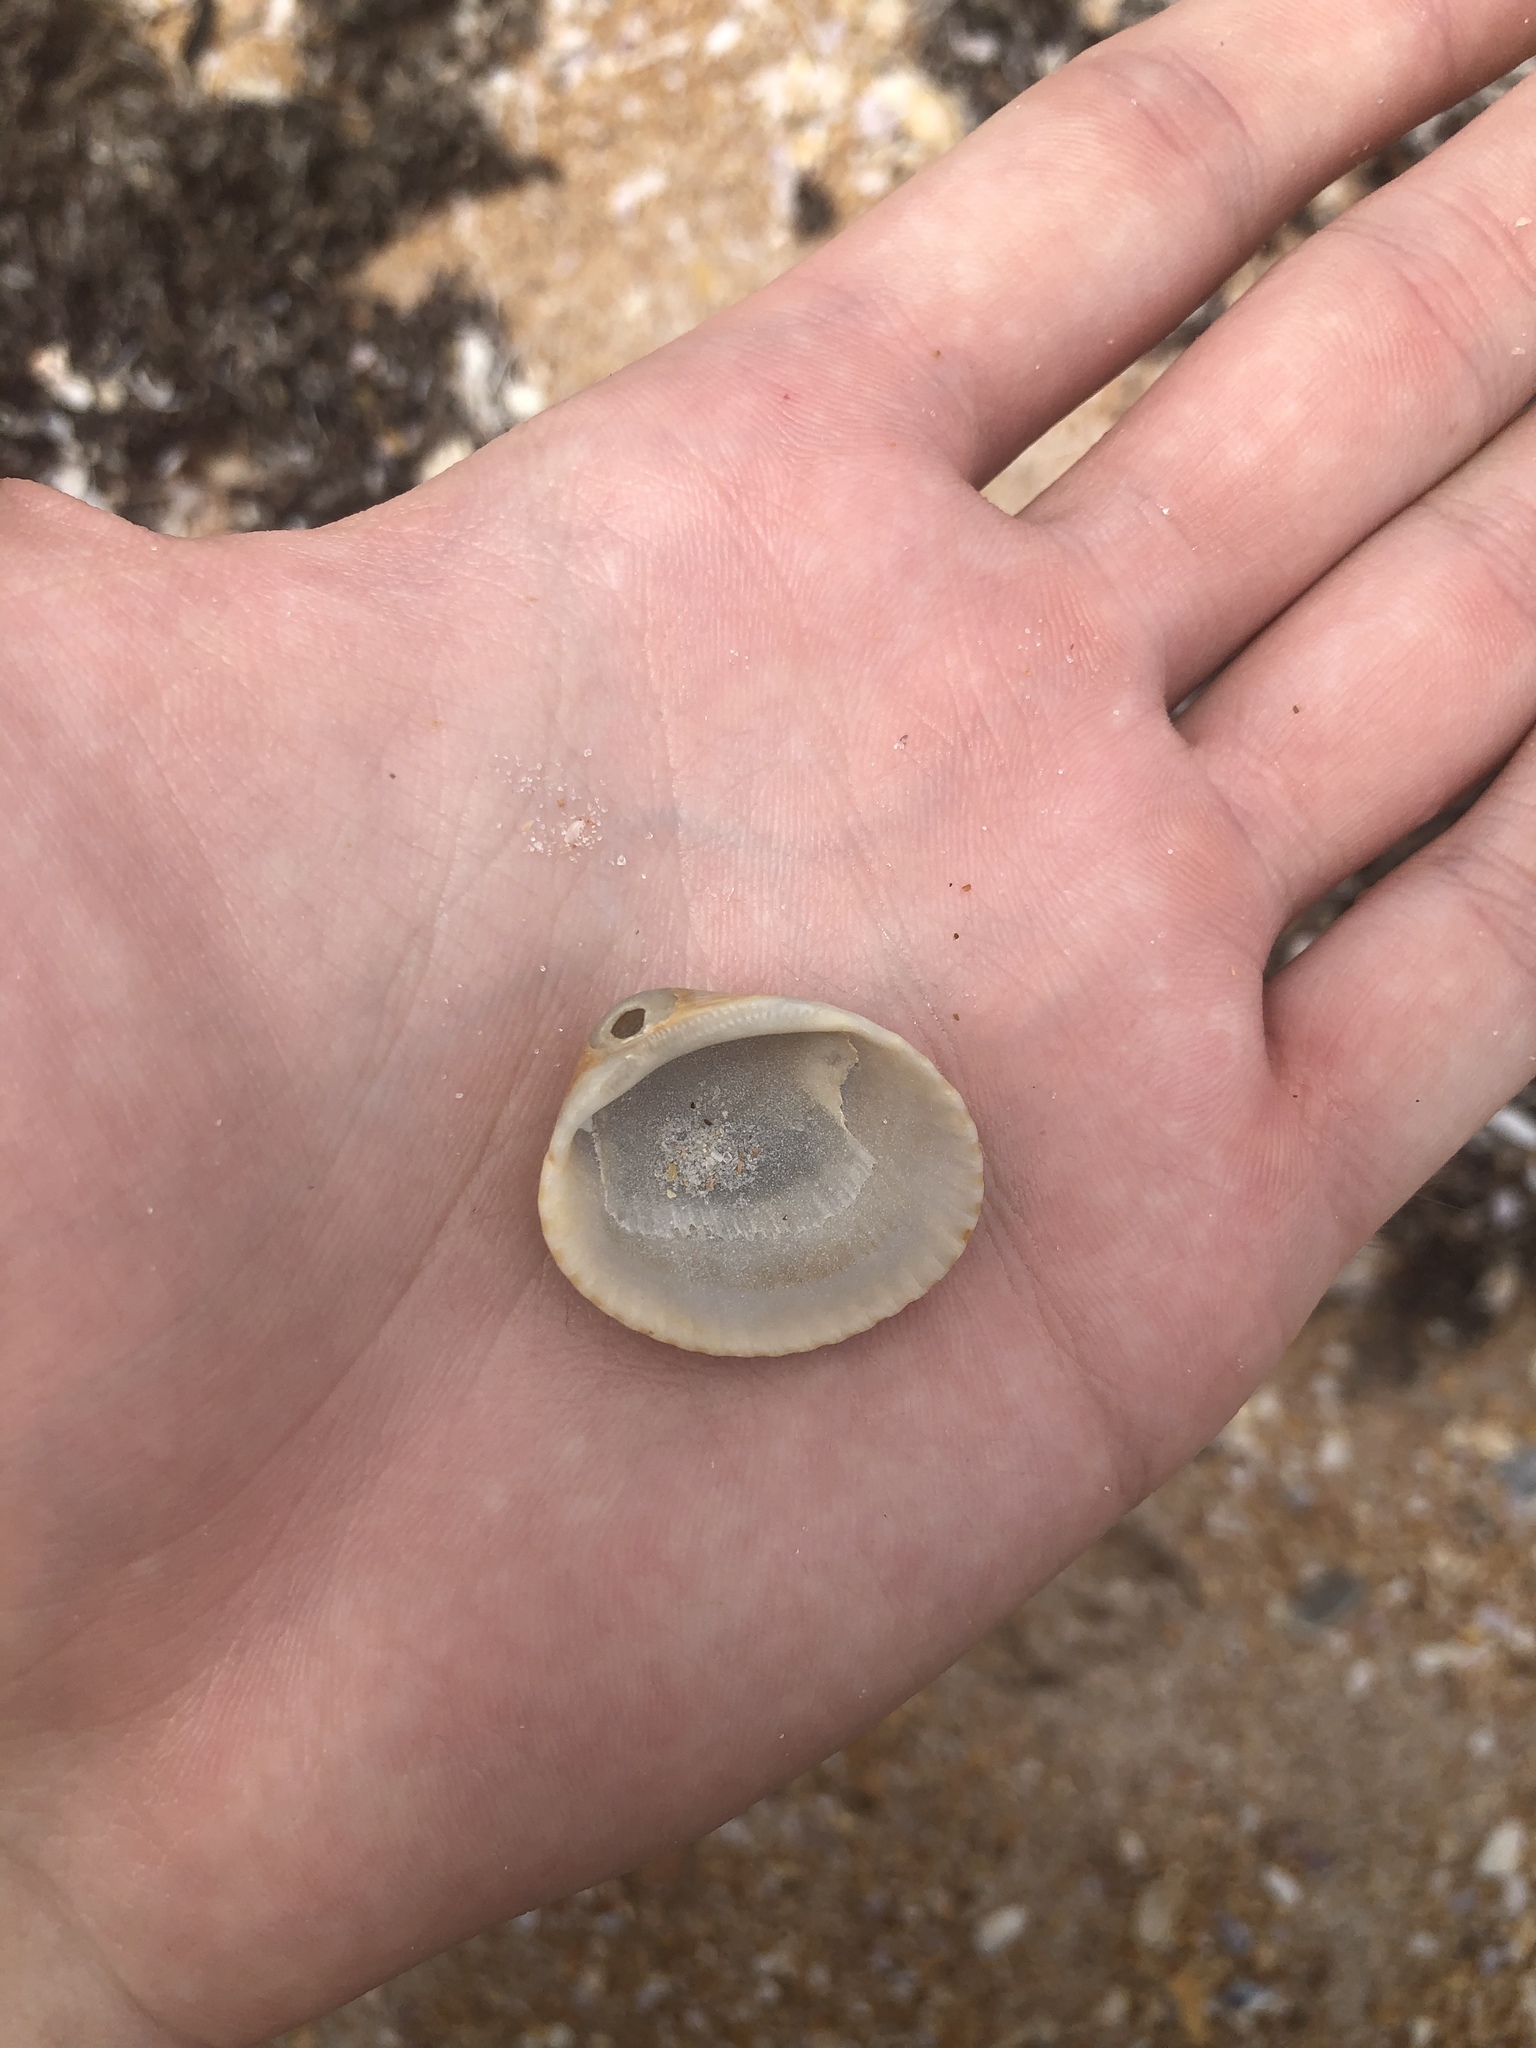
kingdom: Animalia
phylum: Mollusca
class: Bivalvia
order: Arcida
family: Arcidae
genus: Lunarca
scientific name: Lunarca ovalis
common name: Blood ark
